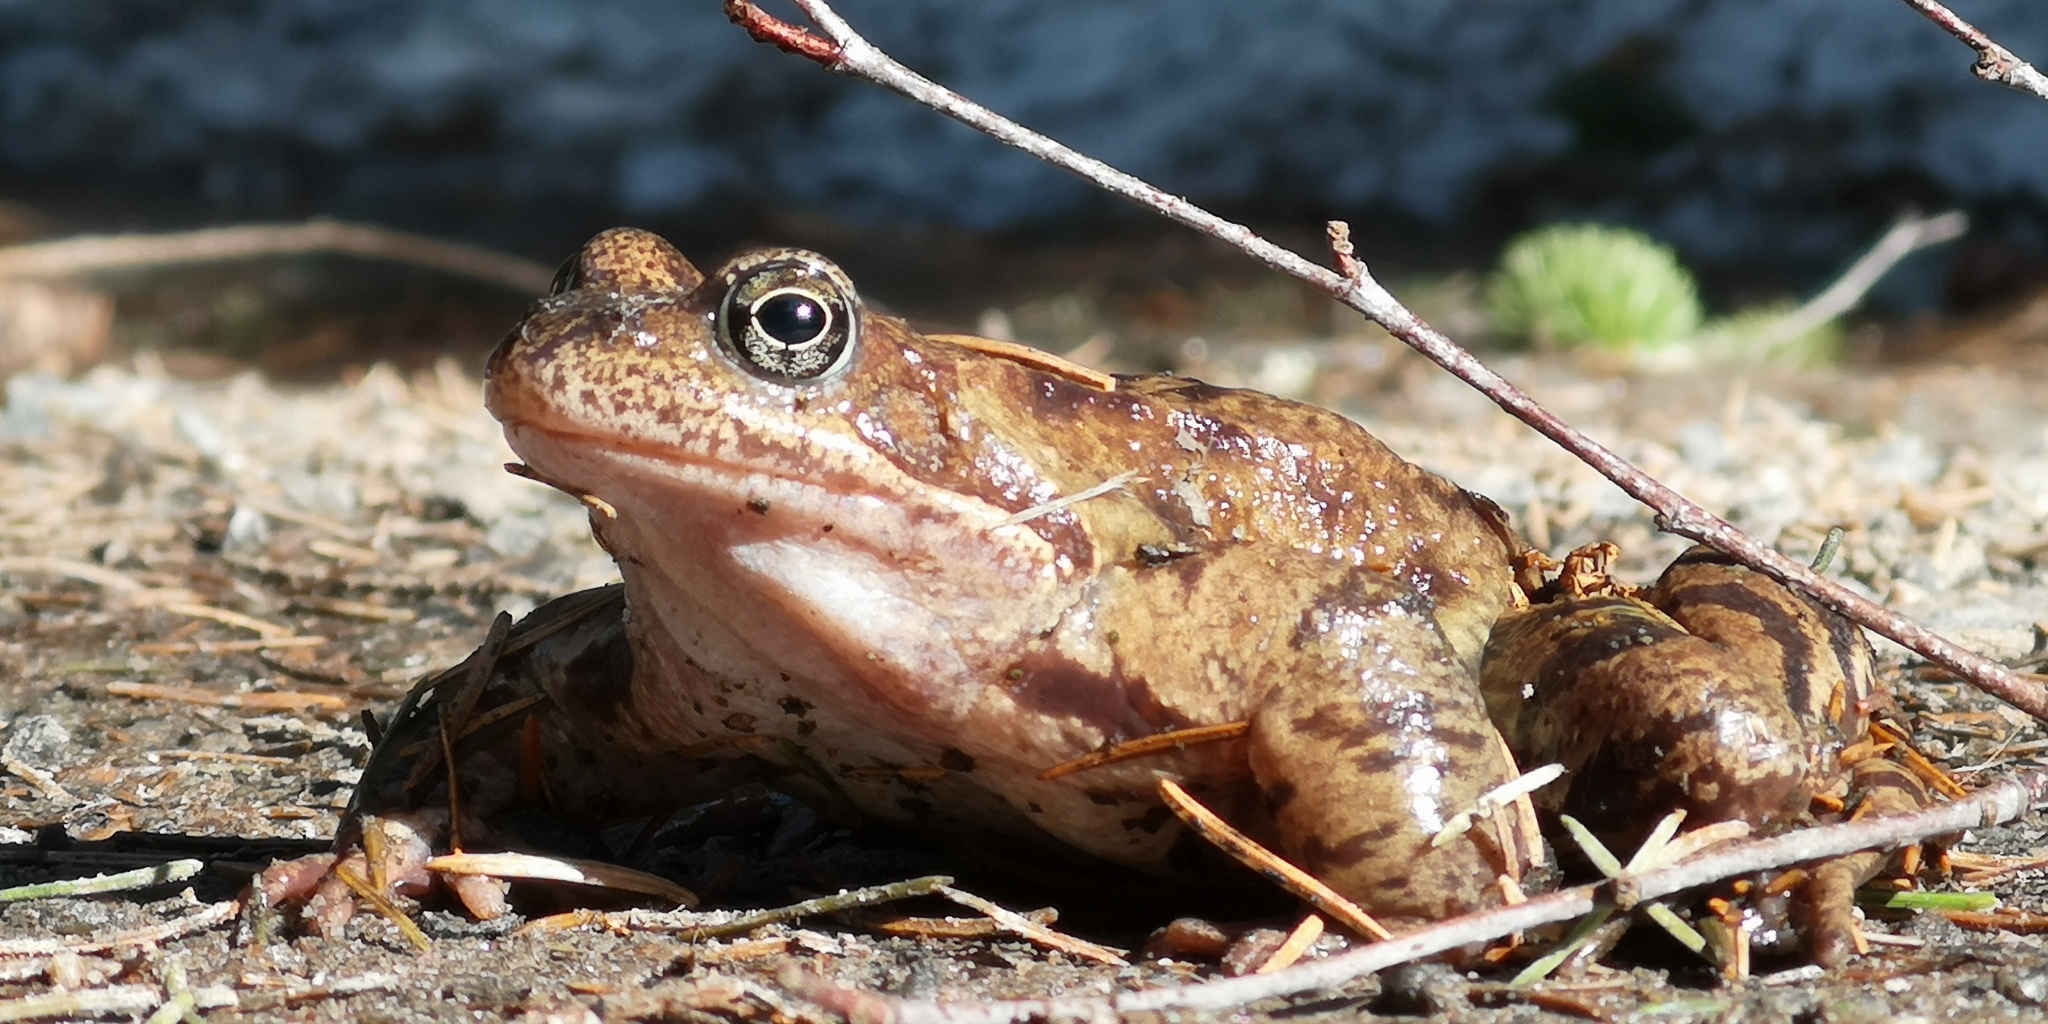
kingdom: Animalia
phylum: Chordata
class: Amphibia
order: Anura
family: Ranidae
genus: Rana
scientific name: Rana temporaria
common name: Common frog
